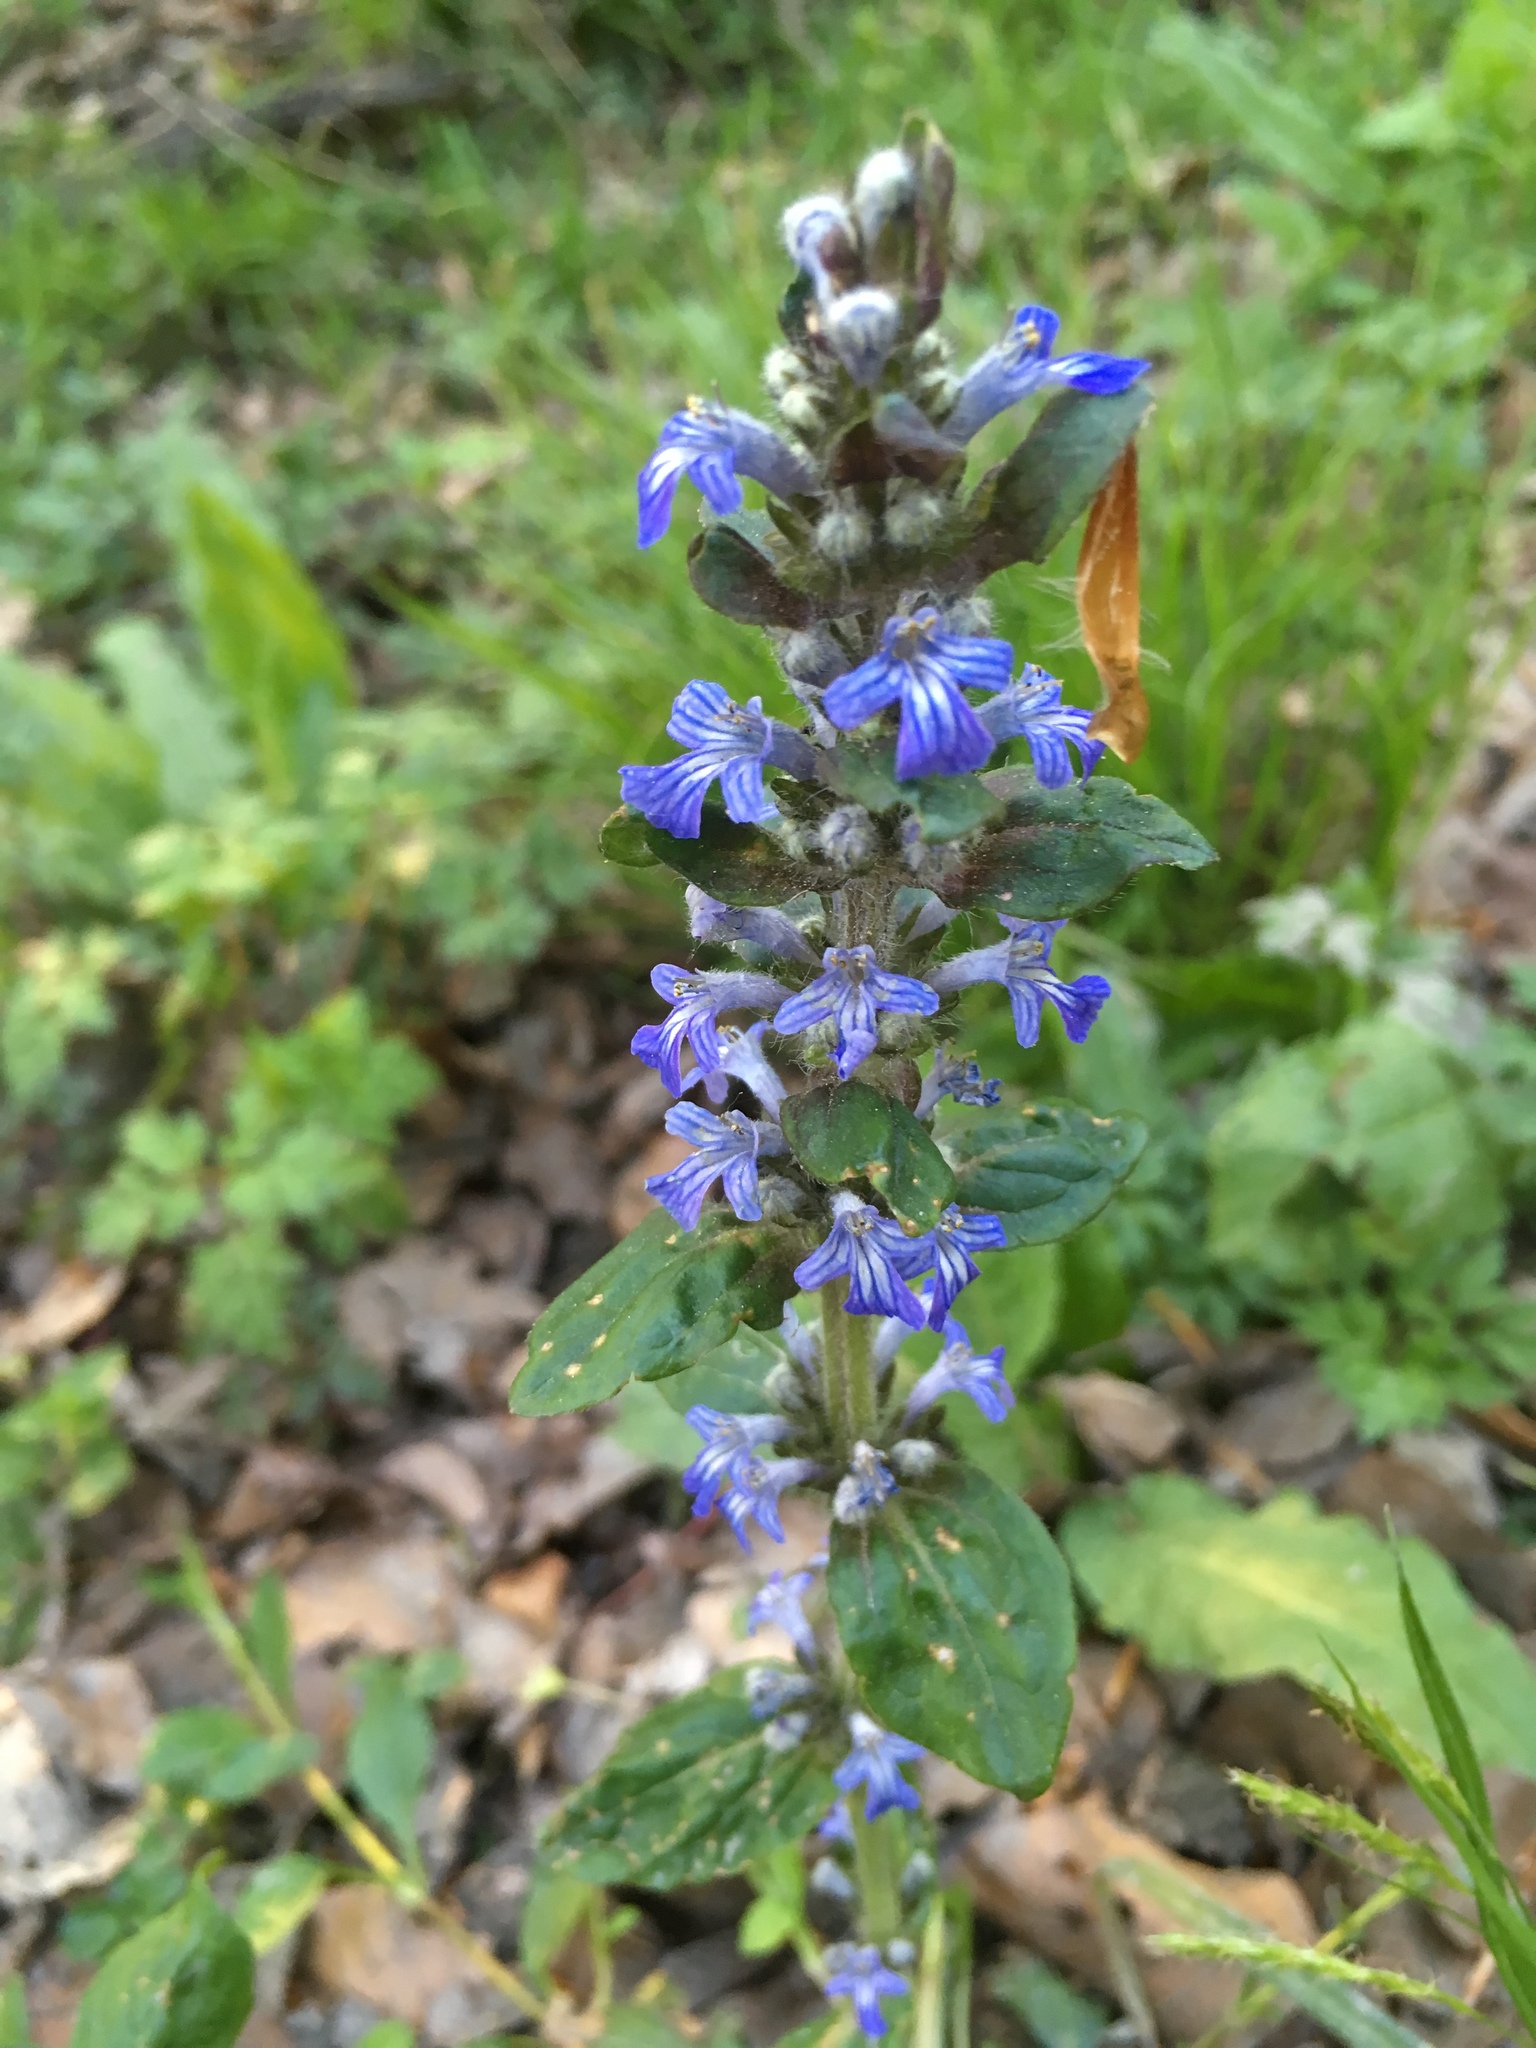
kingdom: Plantae
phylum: Tracheophyta
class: Magnoliopsida
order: Lamiales
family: Lamiaceae
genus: Ajuga
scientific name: Ajuga reptans
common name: Bugle
